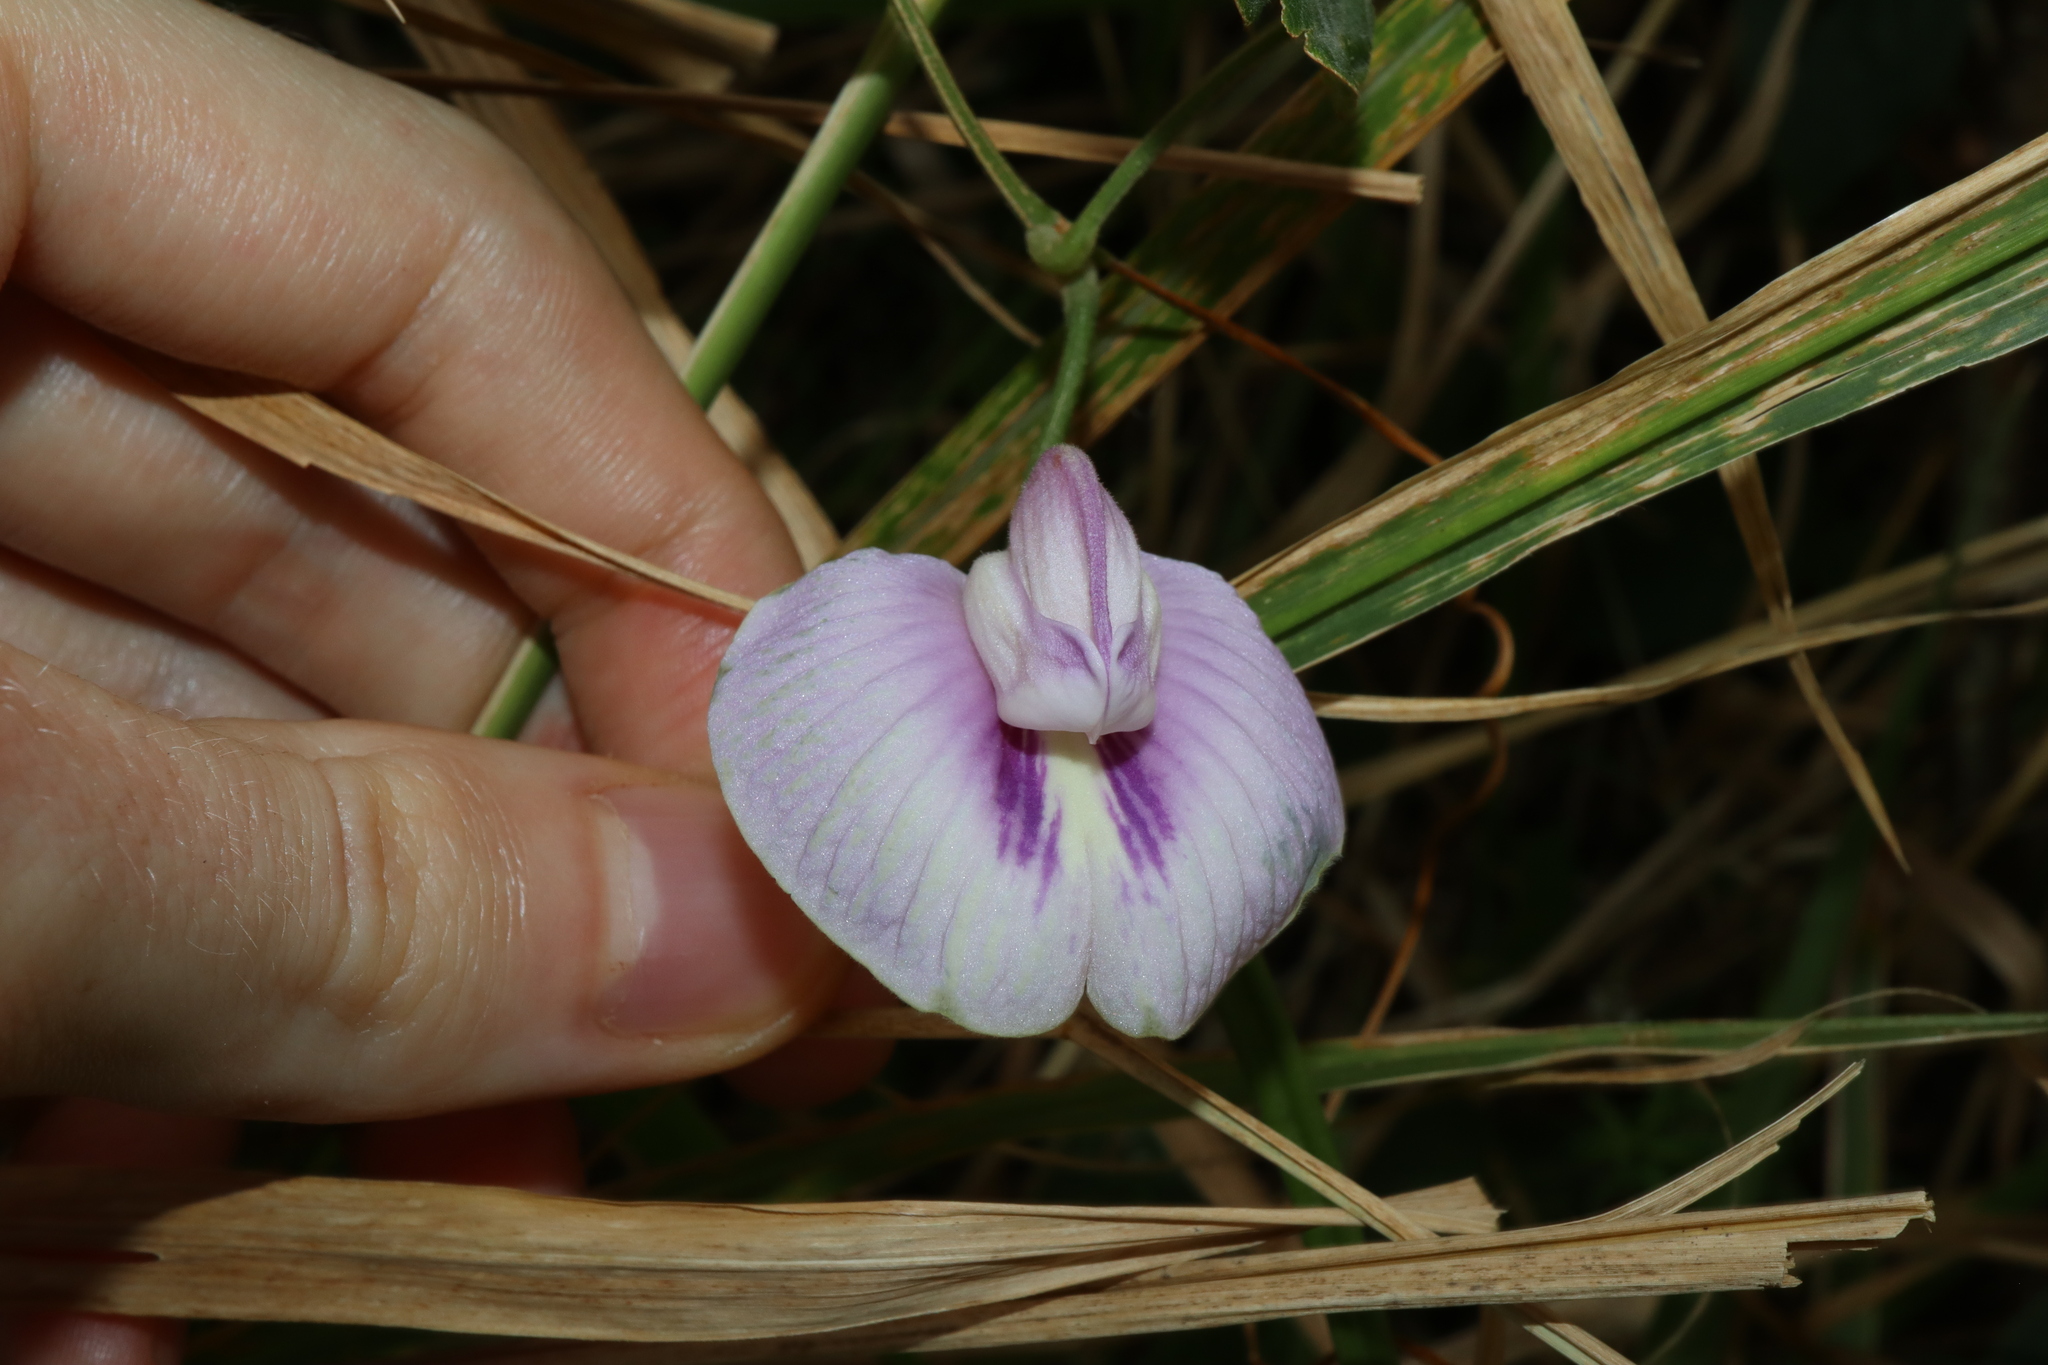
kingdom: Plantae
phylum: Tracheophyta
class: Magnoliopsida
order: Fabales
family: Fabaceae
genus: Centrosema
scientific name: Centrosema molle
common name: Soft butterfly pea
